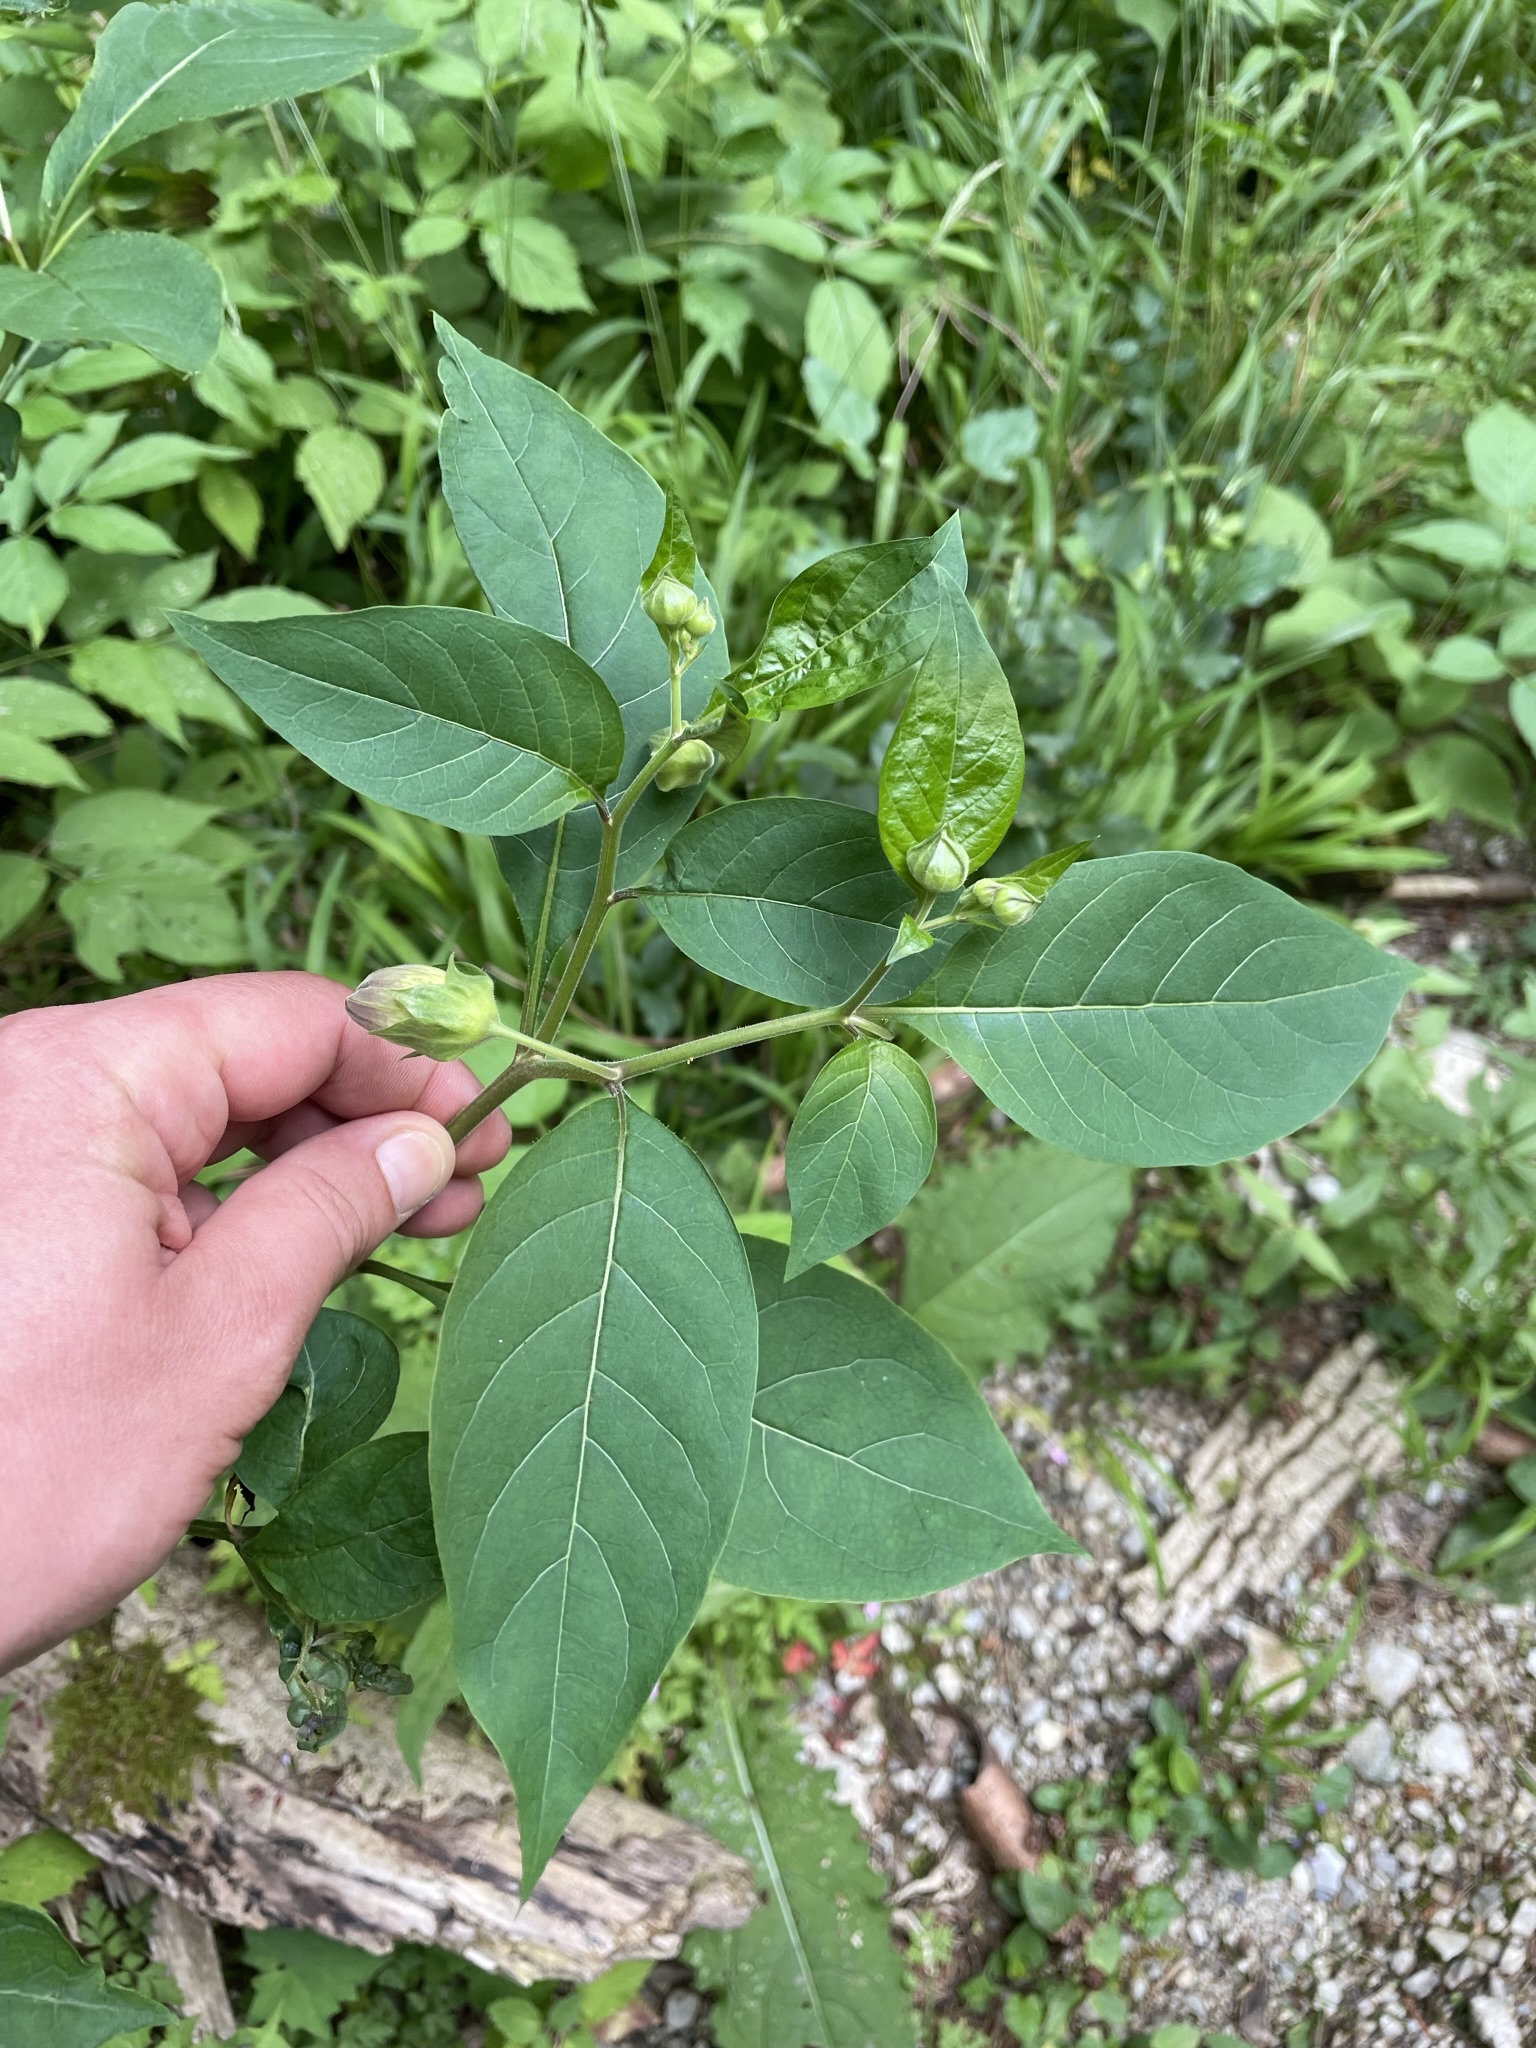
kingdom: Plantae
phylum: Tracheophyta
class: Magnoliopsida
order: Solanales
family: Solanaceae
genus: Atropa
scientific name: Atropa belladonna
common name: Deadly nightshade
